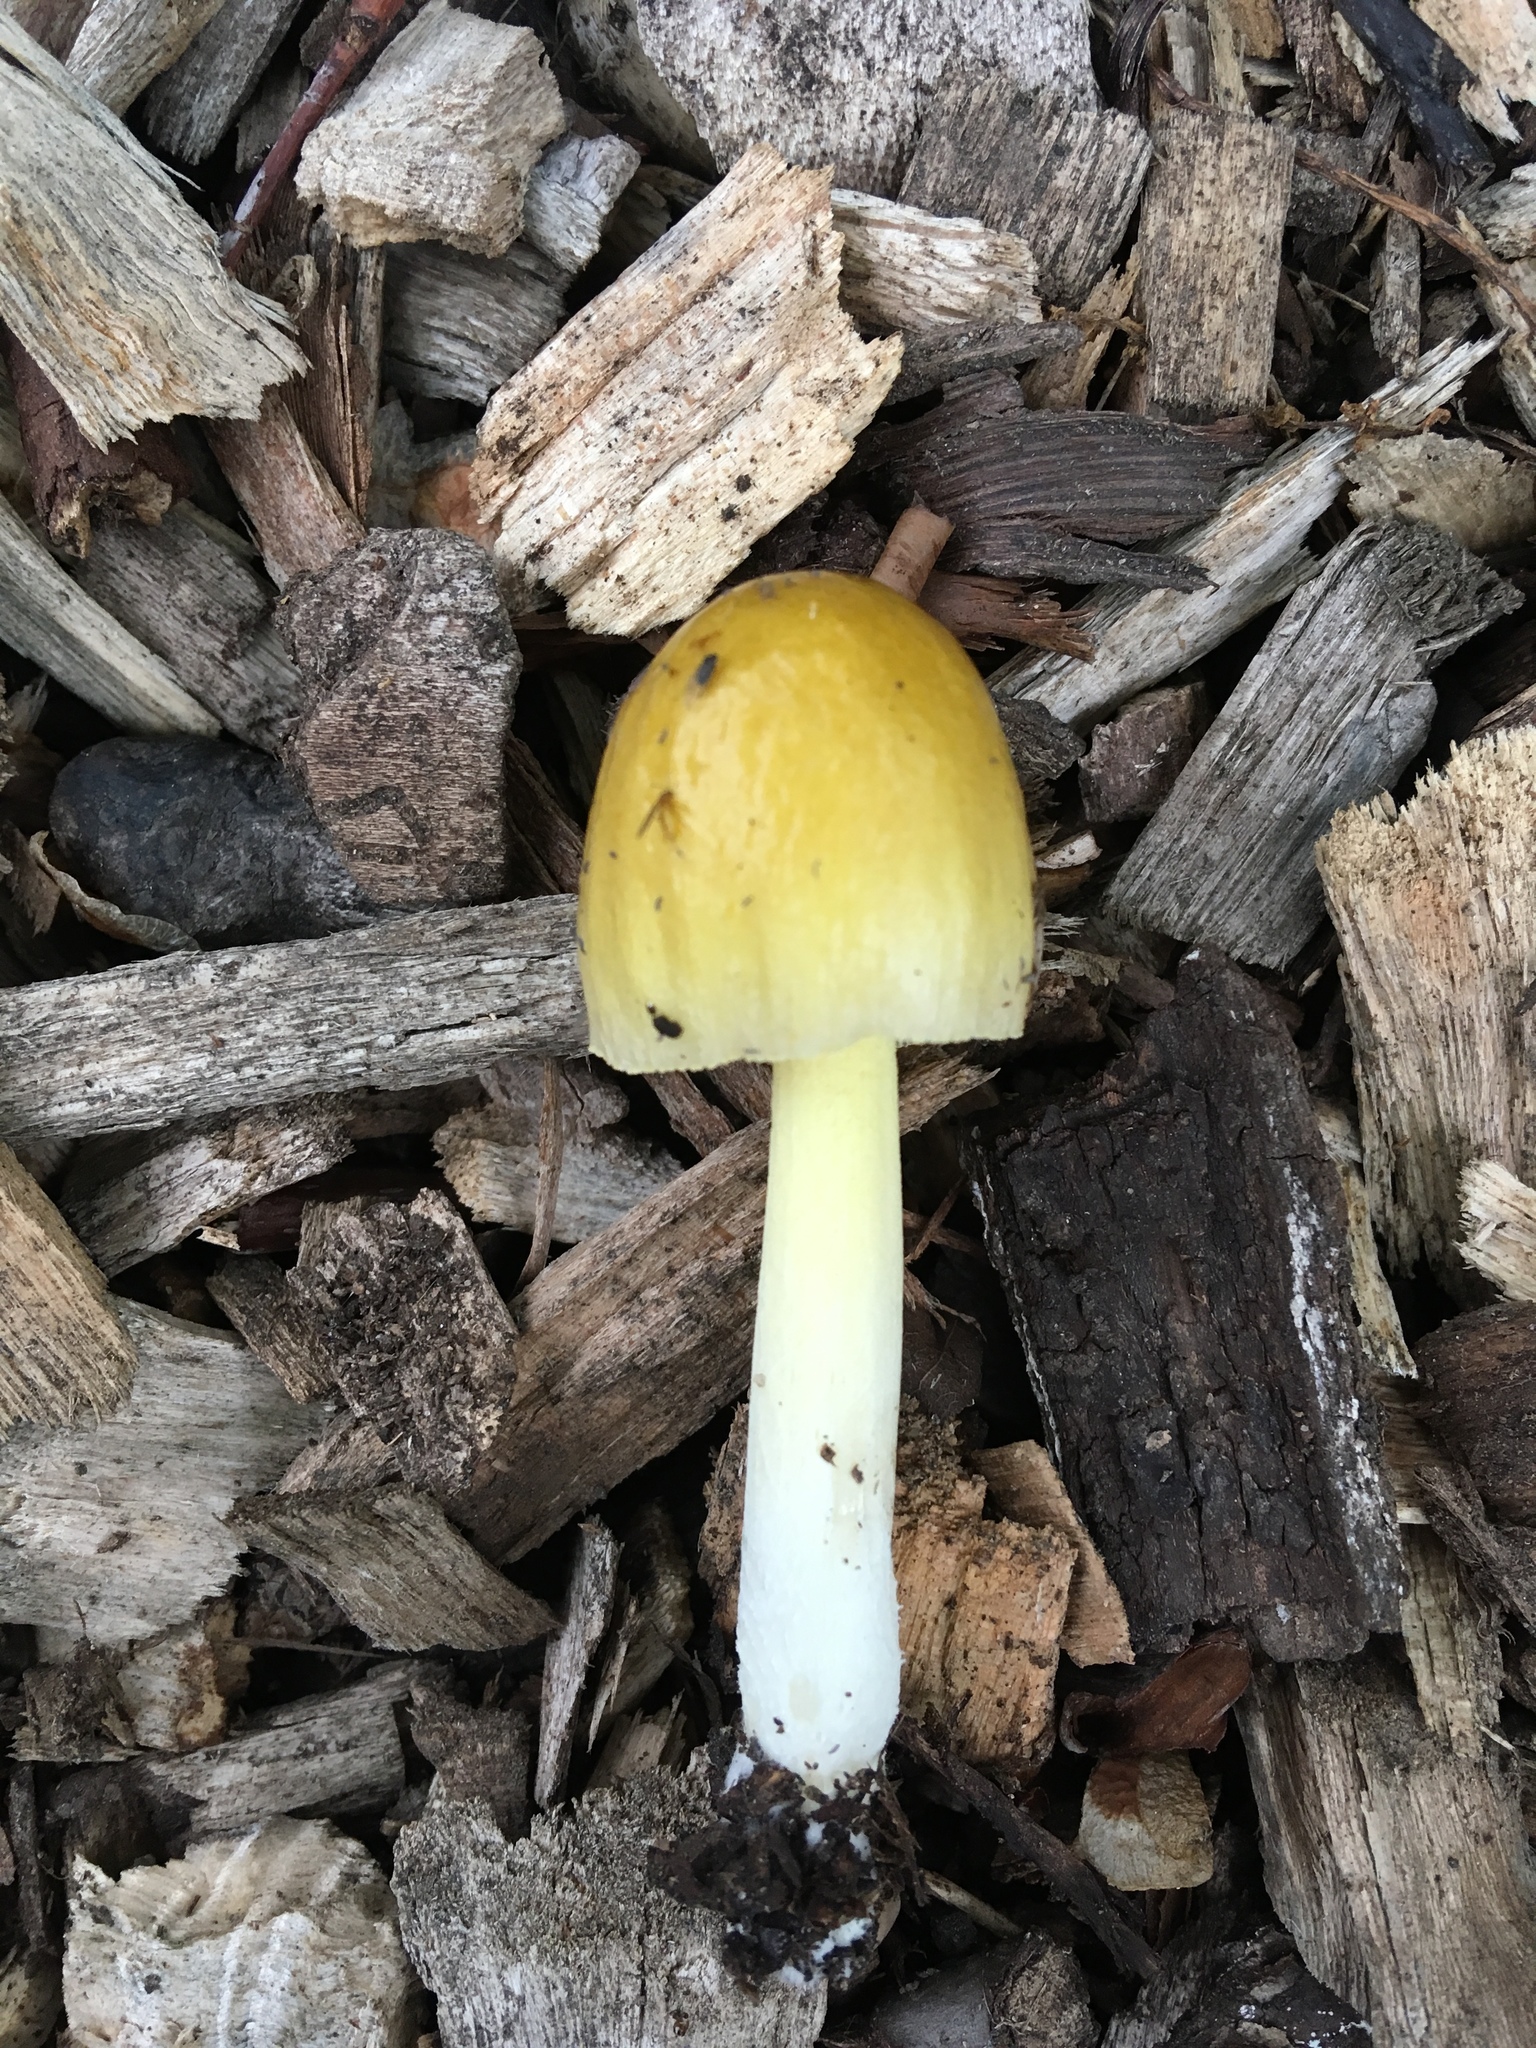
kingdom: Fungi
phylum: Basidiomycota
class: Agaricomycetes
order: Agaricales
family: Bolbitiaceae
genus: Bolbitius
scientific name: Bolbitius titubans
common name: Yellow fieldcap
